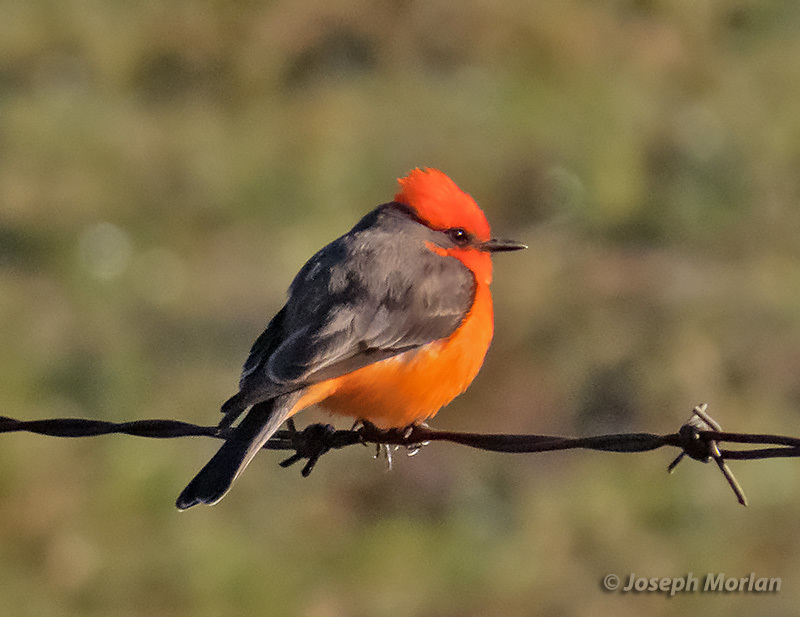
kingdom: Animalia
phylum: Chordata
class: Aves
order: Passeriformes
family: Tyrannidae
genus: Pyrocephalus
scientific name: Pyrocephalus rubinus
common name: Vermilion flycatcher
